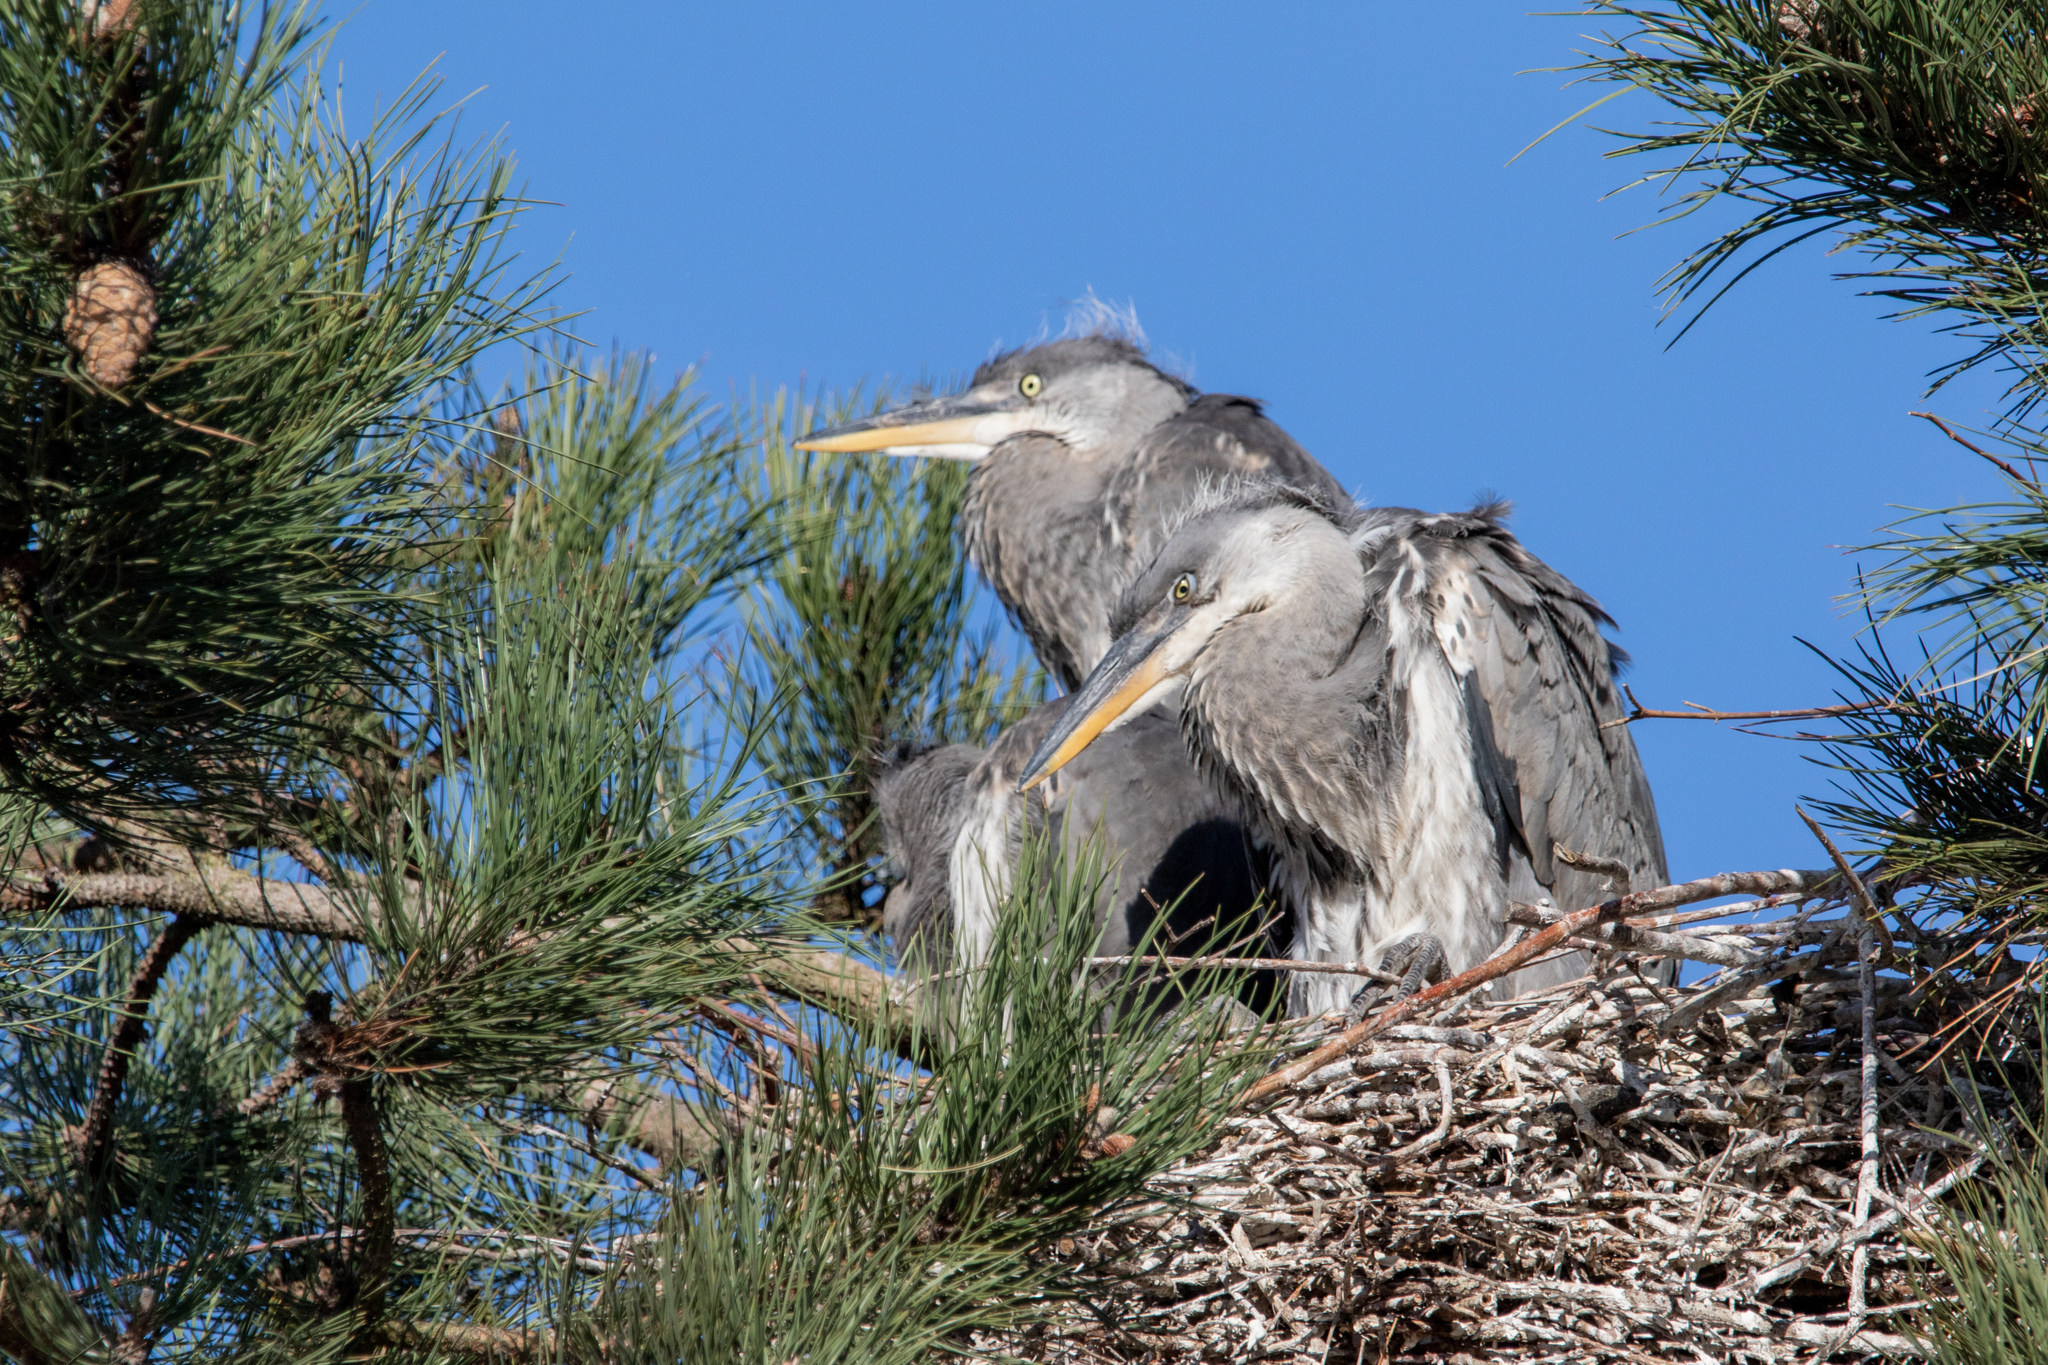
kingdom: Animalia
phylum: Chordata
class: Aves
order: Pelecaniformes
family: Ardeidae
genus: Ardea
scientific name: Ardea cinerea
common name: Grey heron
